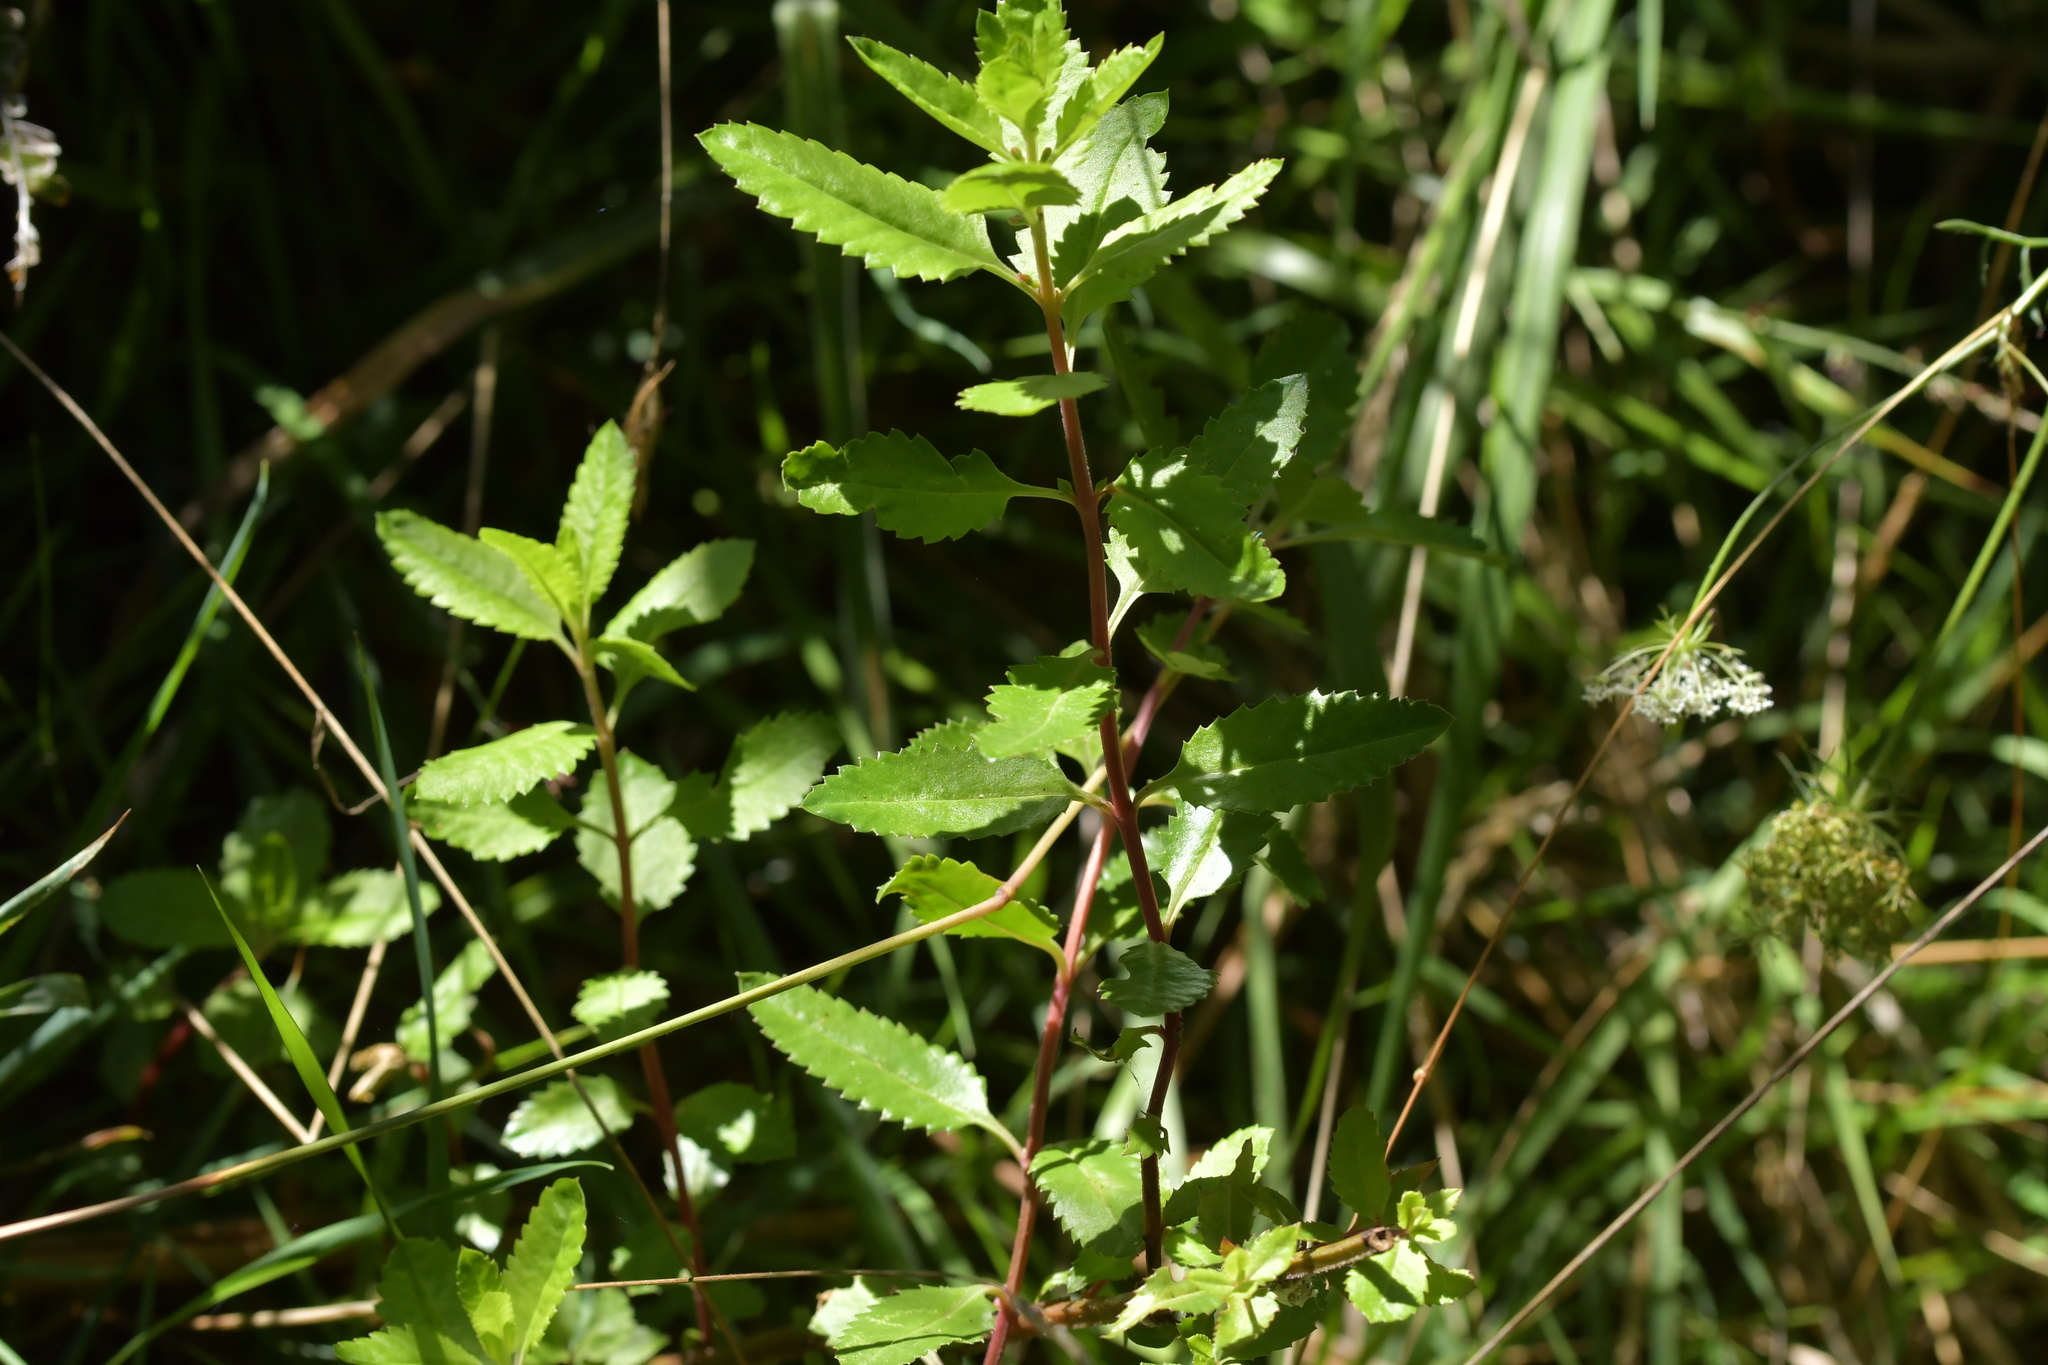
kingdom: Plantae
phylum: Tracheophyta
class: Magnoliopsida
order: Saxifragales
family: Haloragaceae
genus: Haloragis
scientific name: Haloragis erecta
